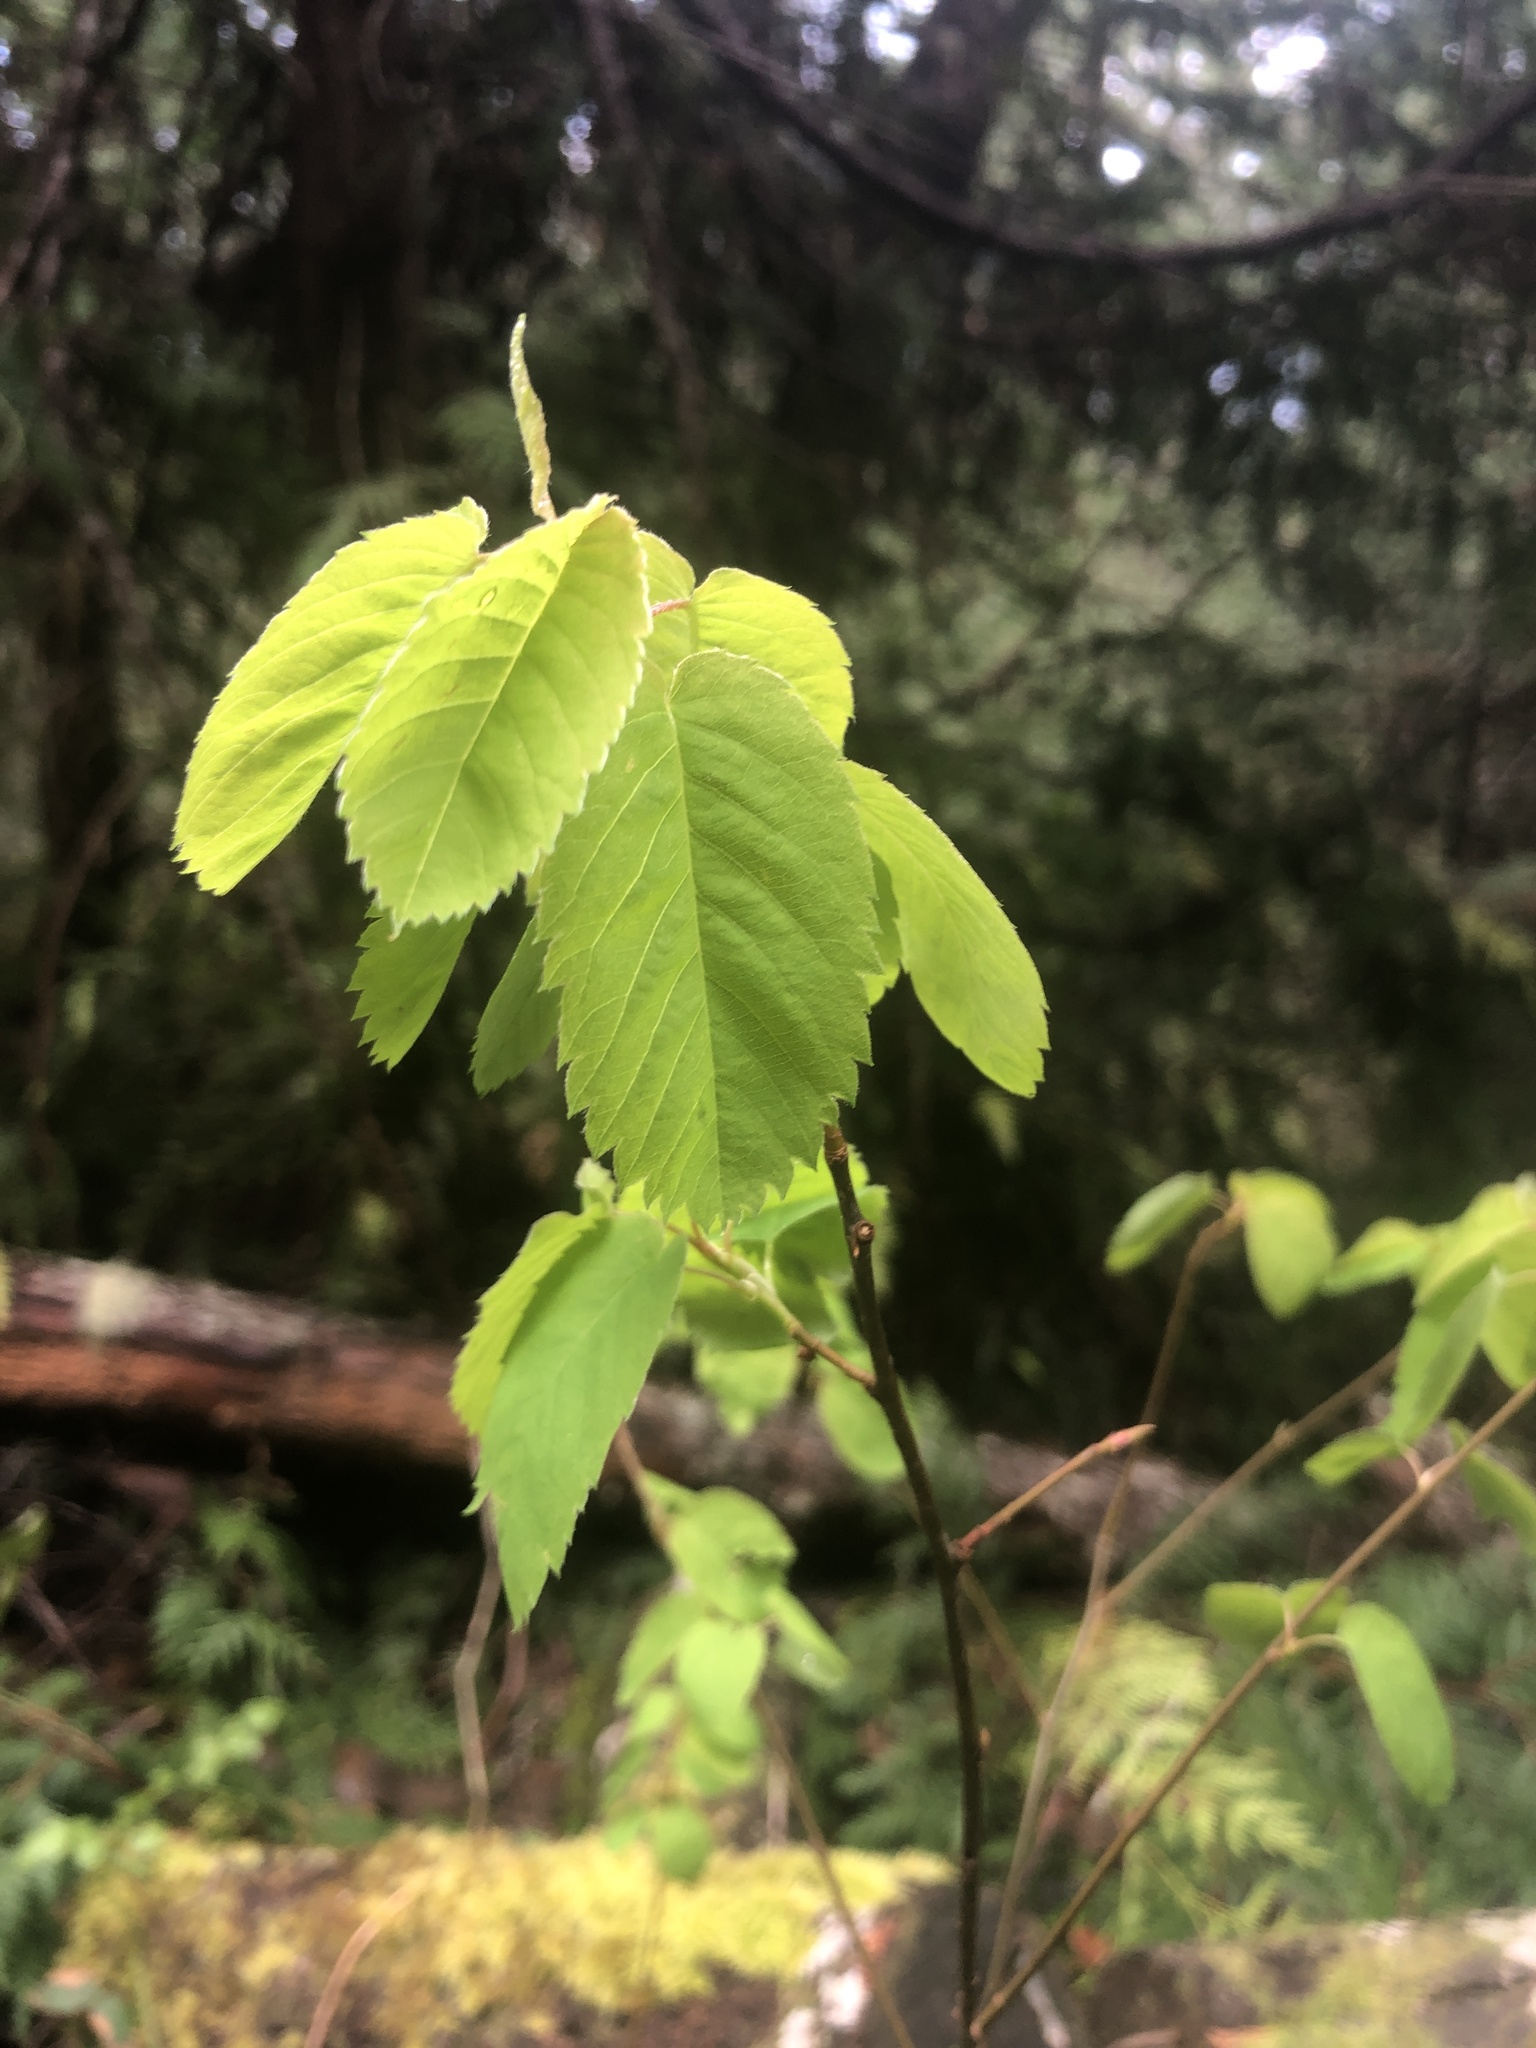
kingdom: Plantae
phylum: Tracheophyta
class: Magnoliopsida
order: Rosales
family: Rosaceae
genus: Amelanchier
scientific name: Amelanchier alnifolia
